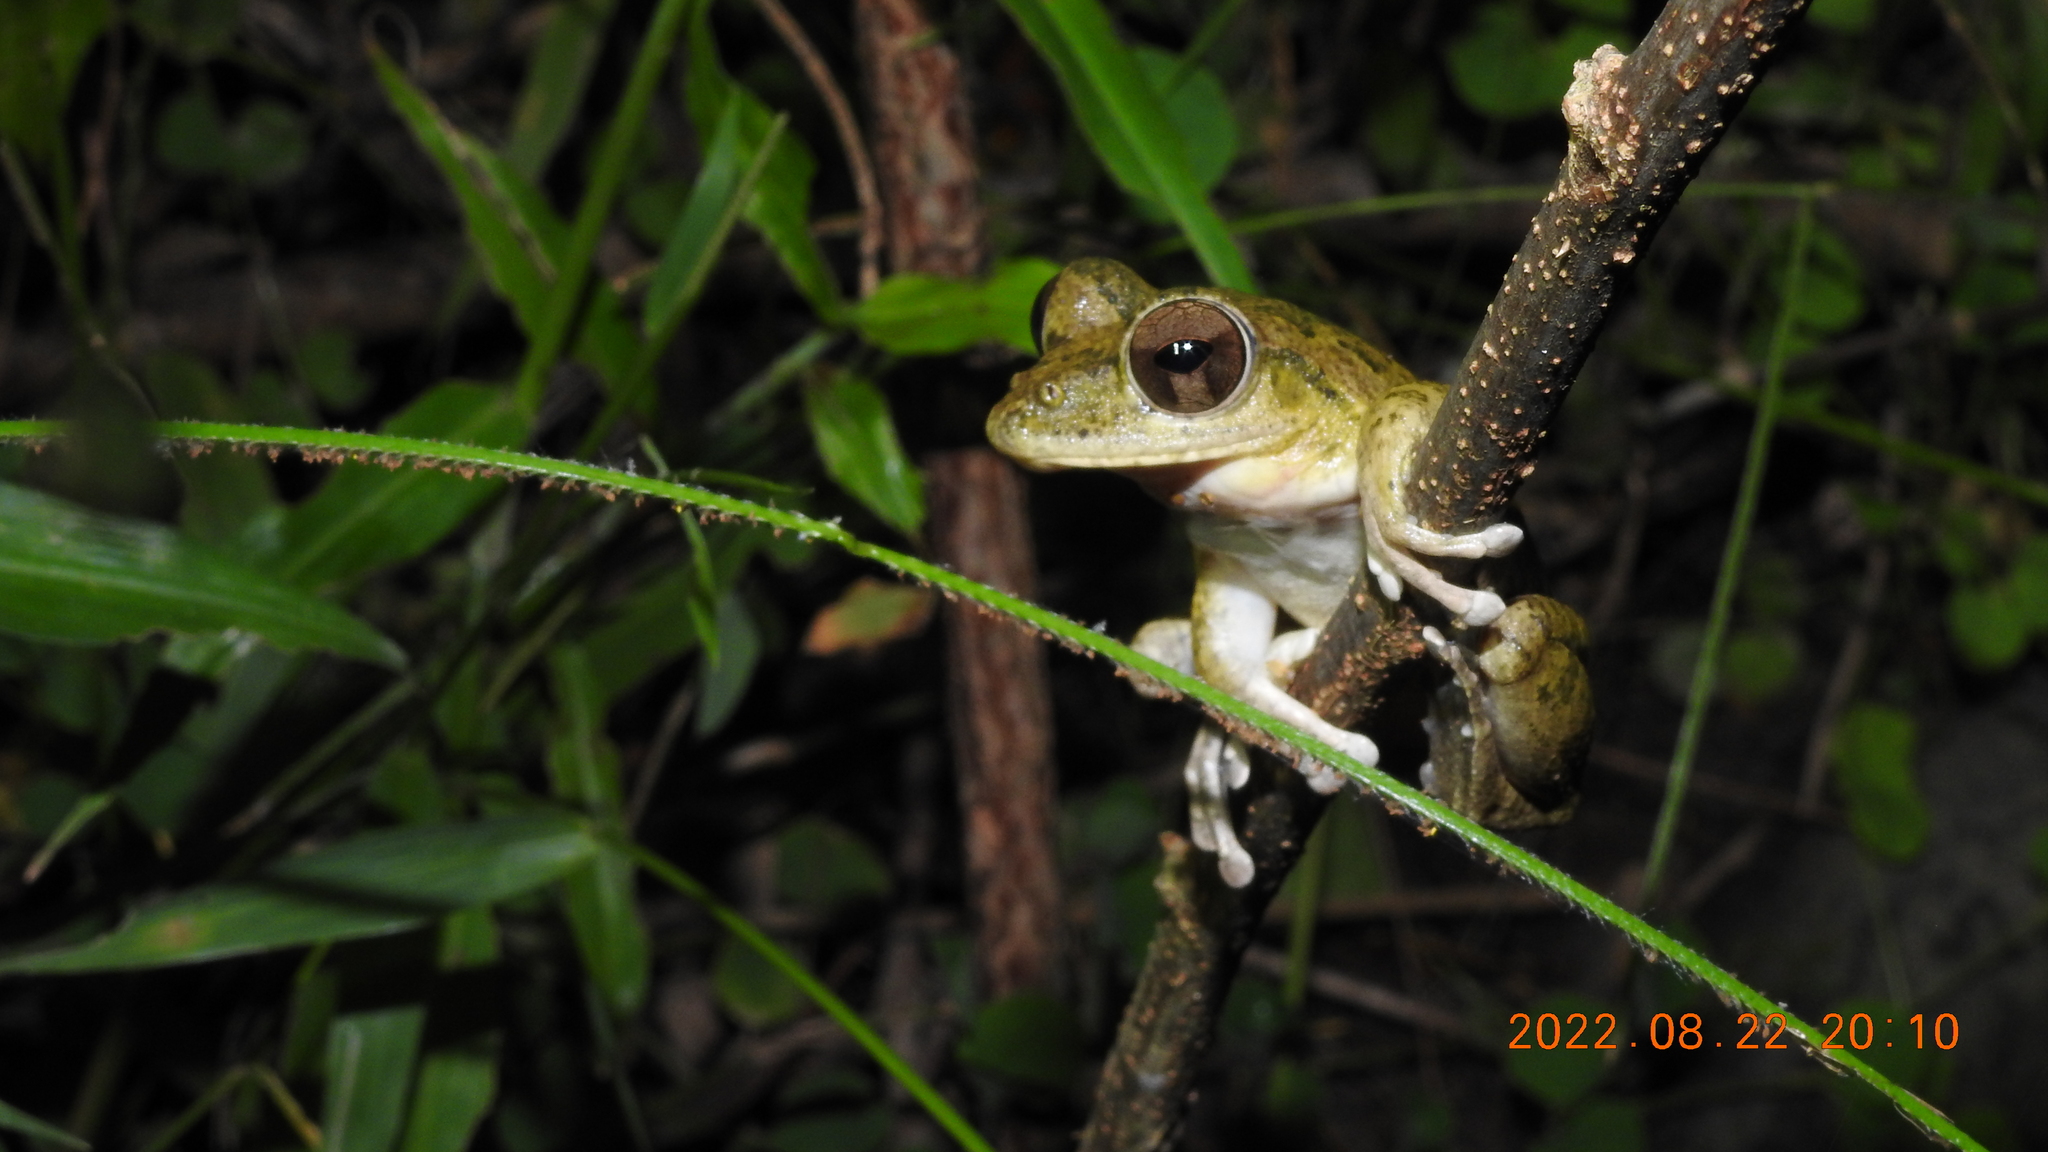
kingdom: Animalia
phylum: Chordata
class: Amphibia
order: Anura
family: Rhacophoridae
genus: Buergeria
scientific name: Buergeria robusta
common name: Brown treefrog
